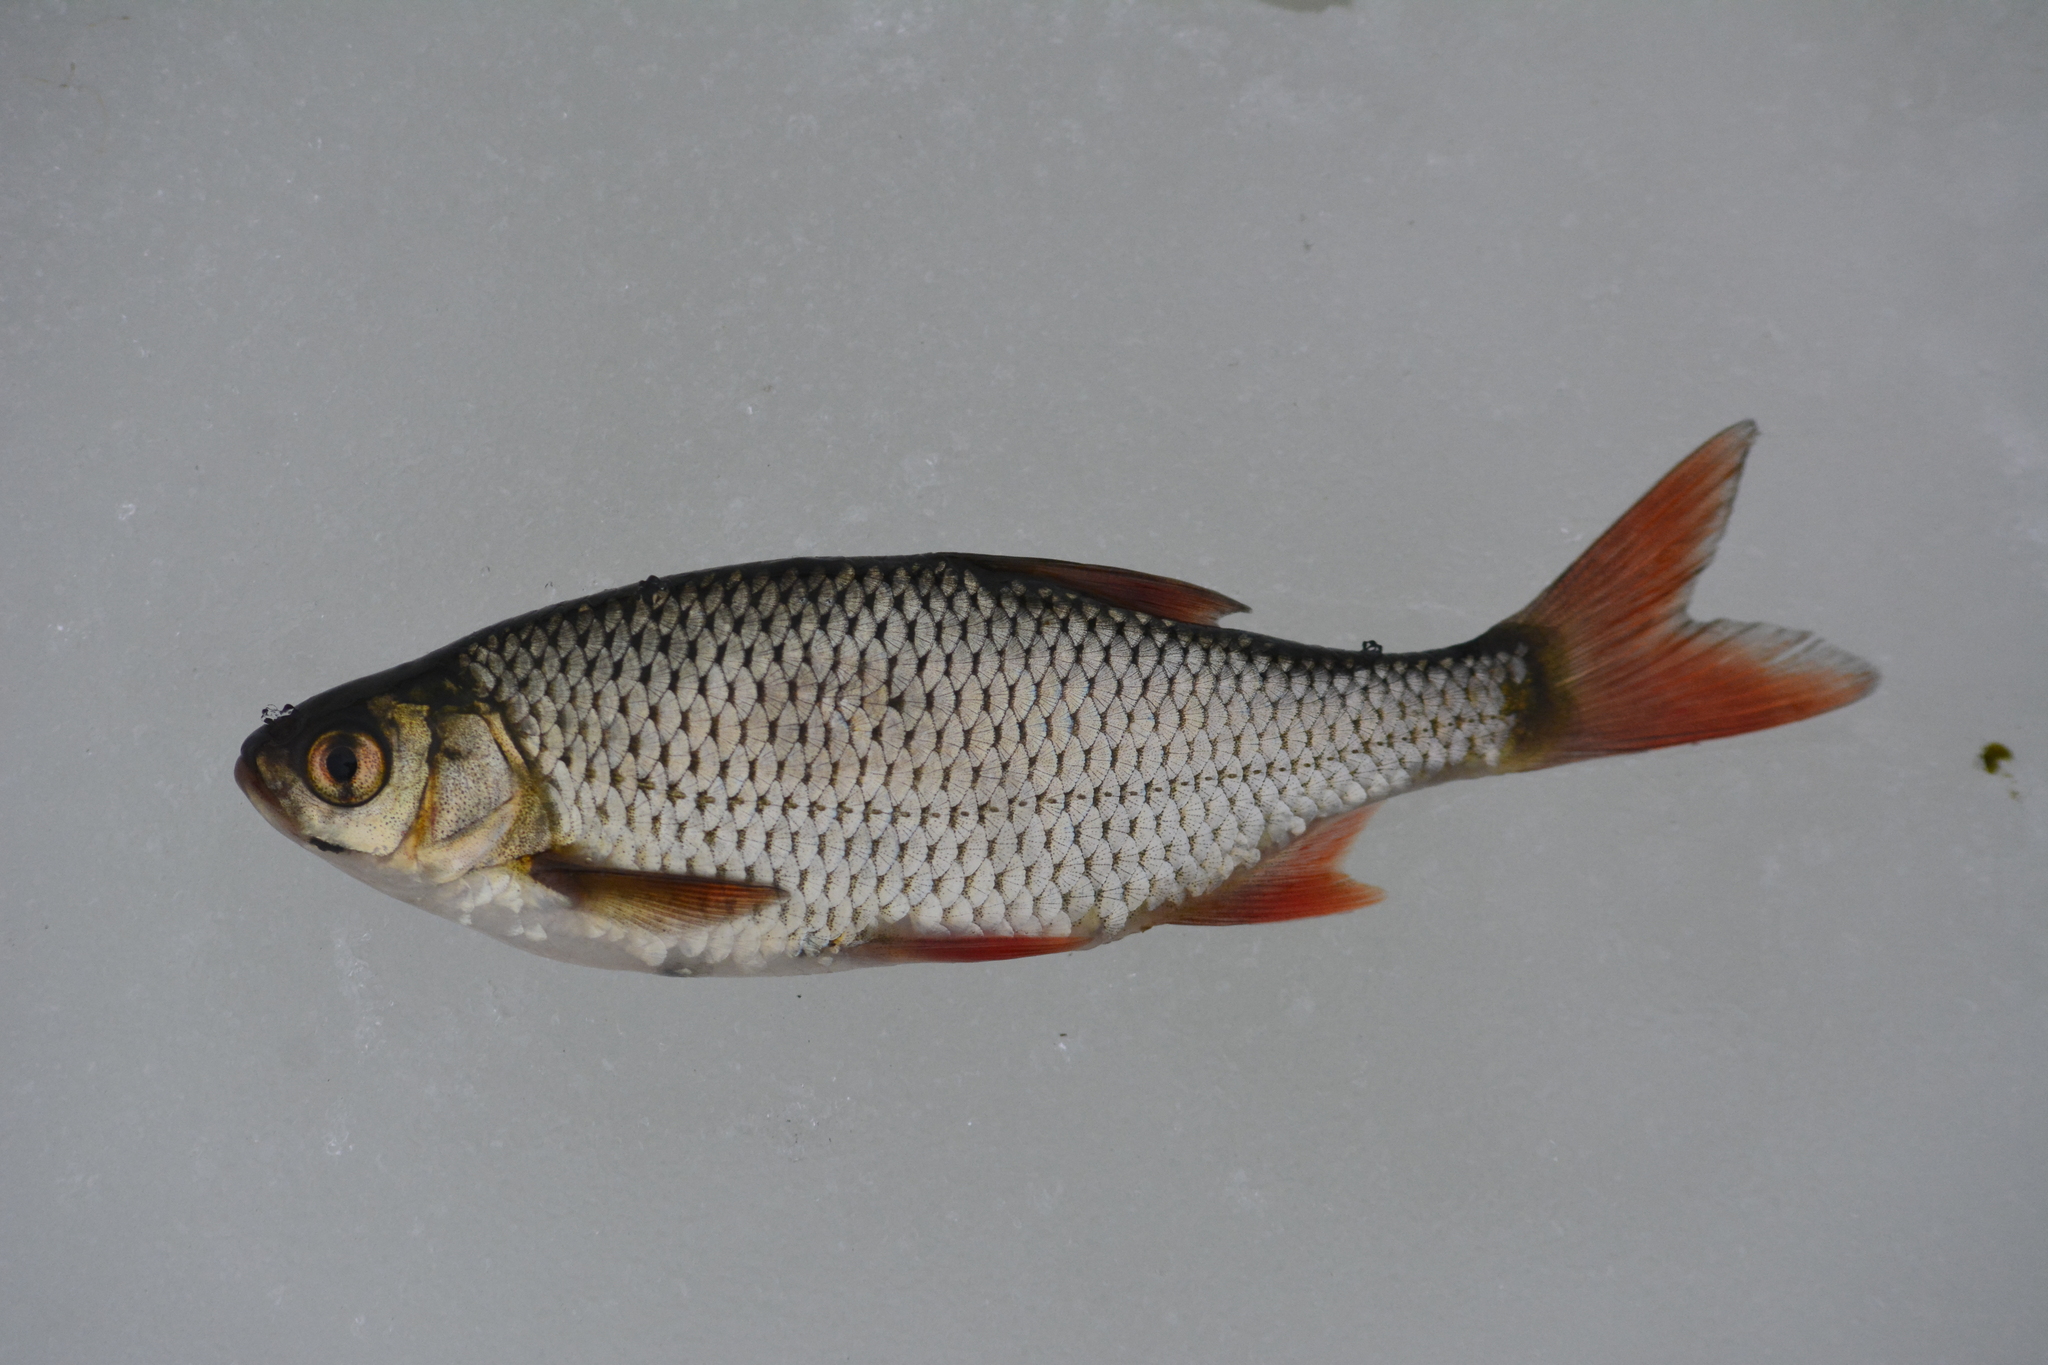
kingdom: Animalia
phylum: Chordata
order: Cypriniformes
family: Cyprinidae
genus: Scardinius
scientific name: Scardinius erythrophthalmus
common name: Rudd
